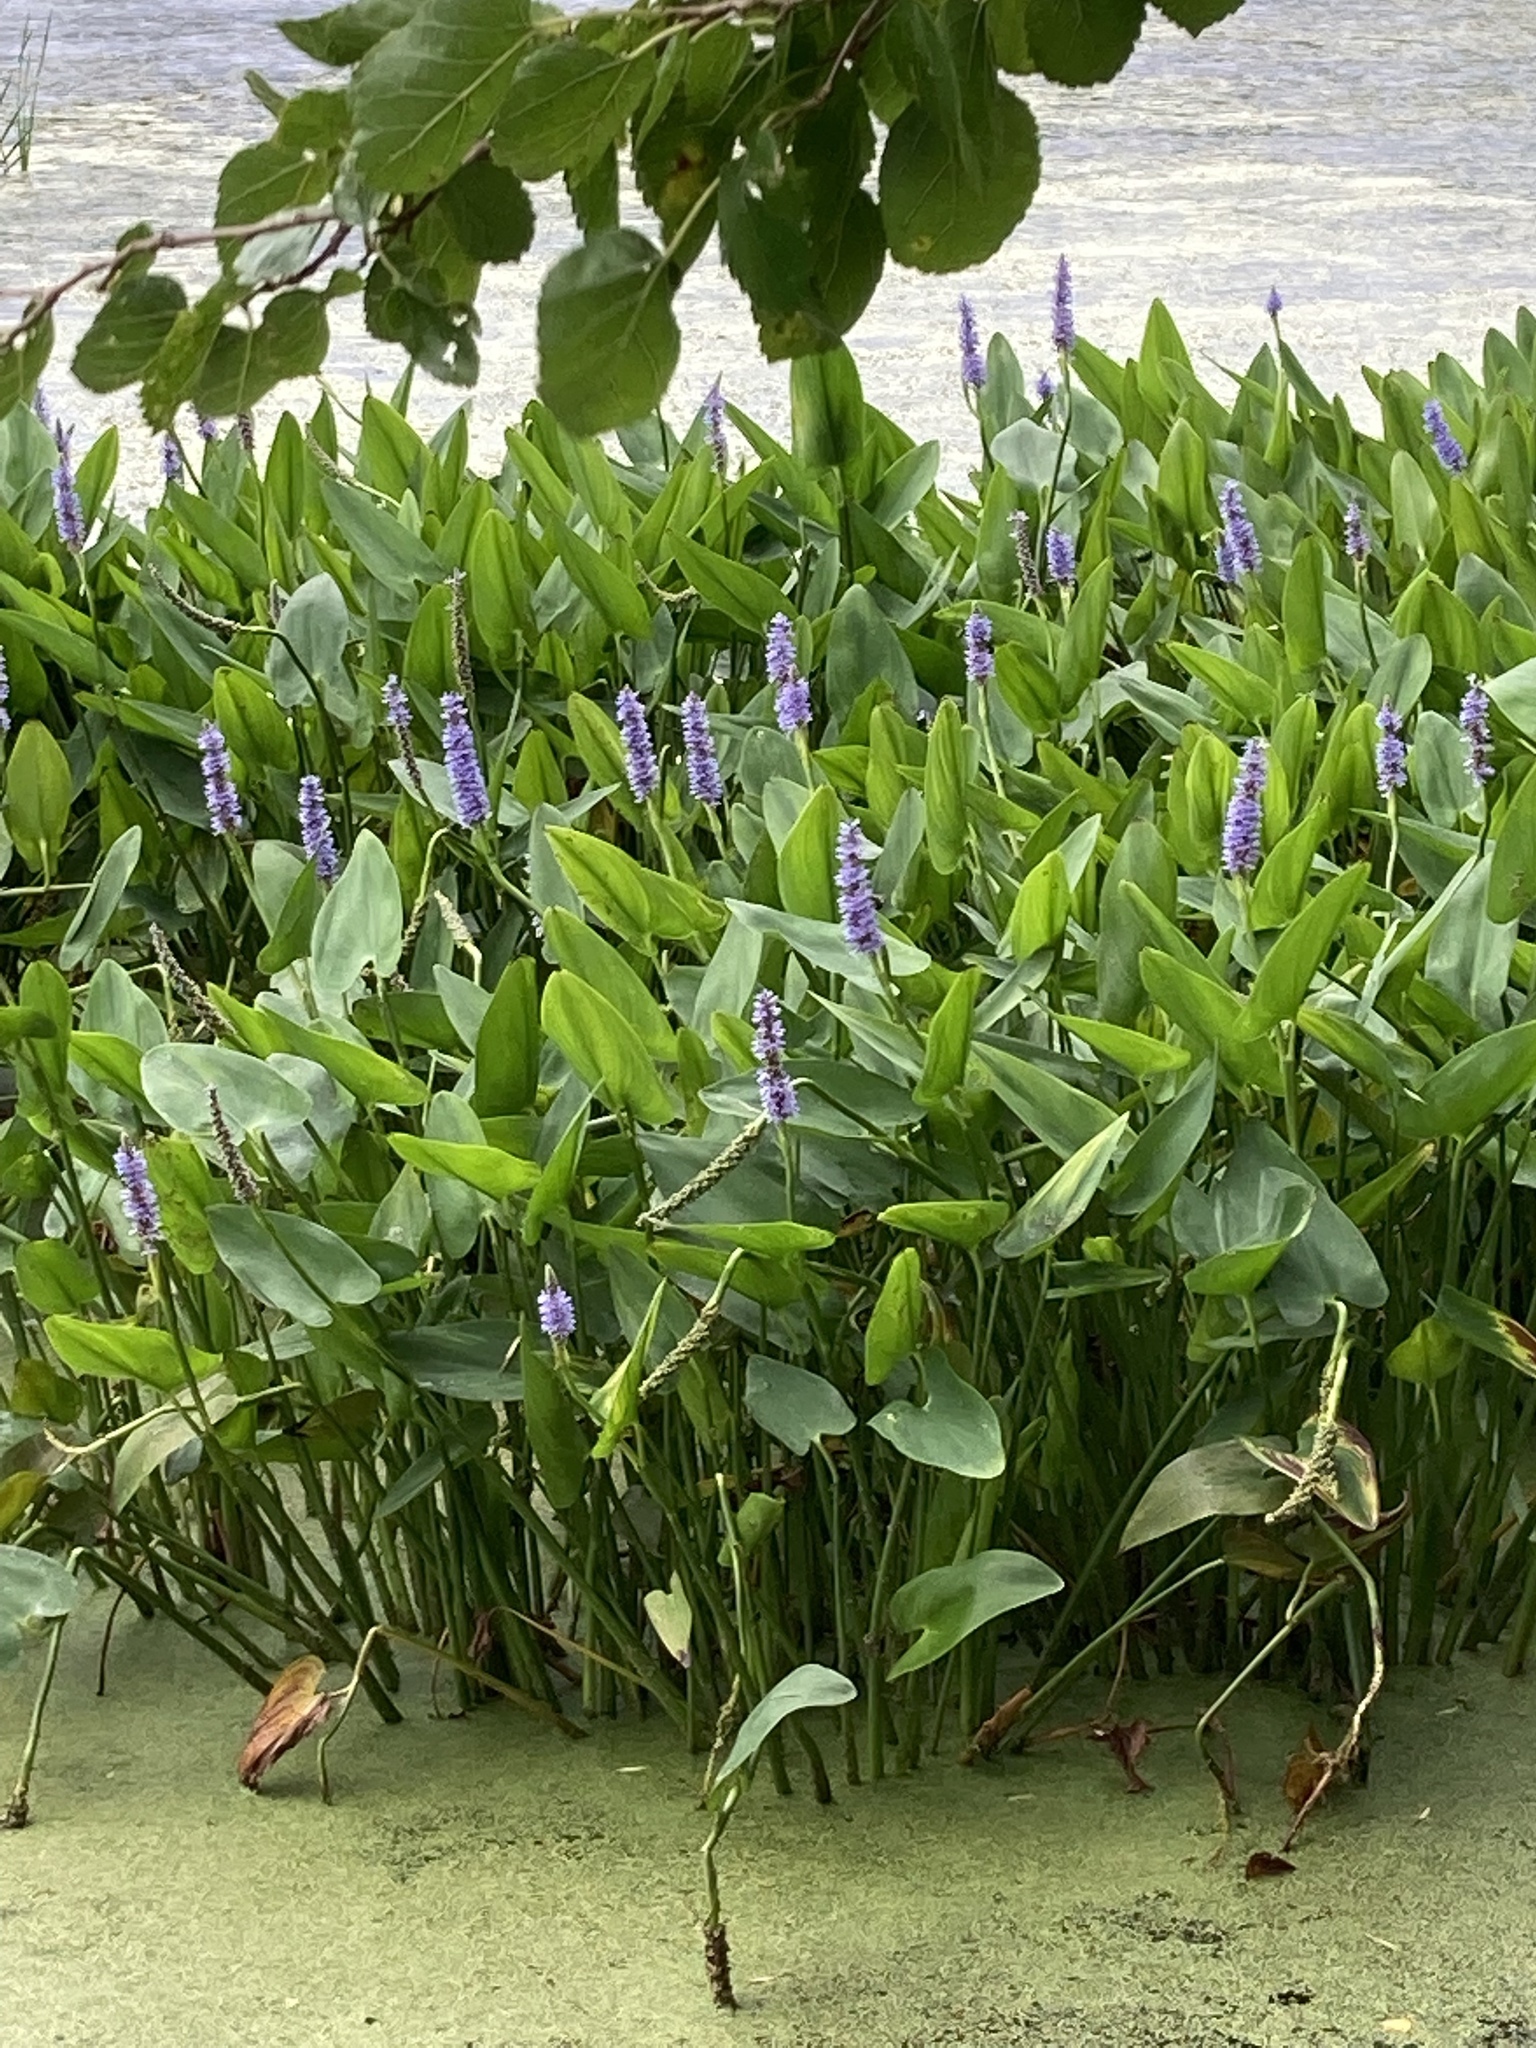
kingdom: Plantae
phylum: Tracheophyta
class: Liliopsida
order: Commelinales
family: Pontederiaceae
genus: Pontederia
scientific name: Pontederia cordata
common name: Pickerelweed
